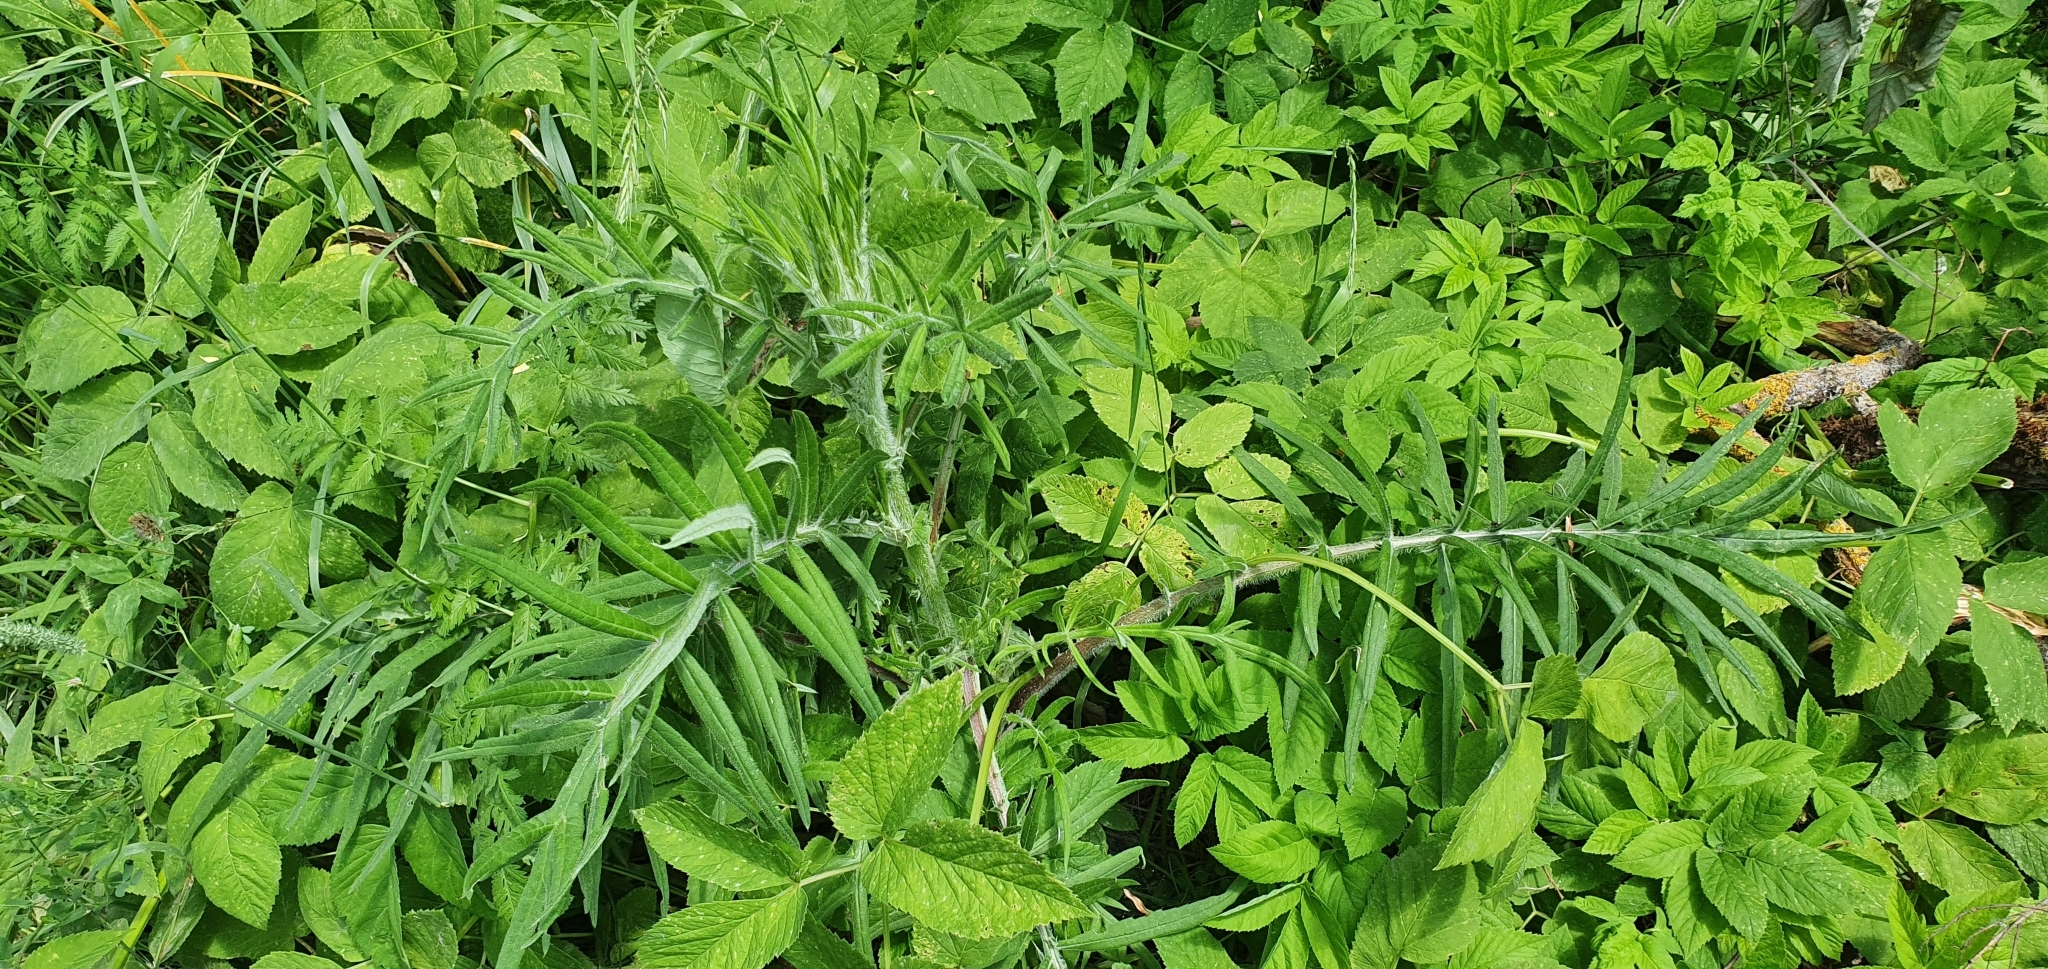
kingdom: Plantae
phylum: Tracheophyta
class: Magnoliopsida
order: Asterales
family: Asteraceae
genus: Lophiolepis
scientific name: Lophiolepis decussata
